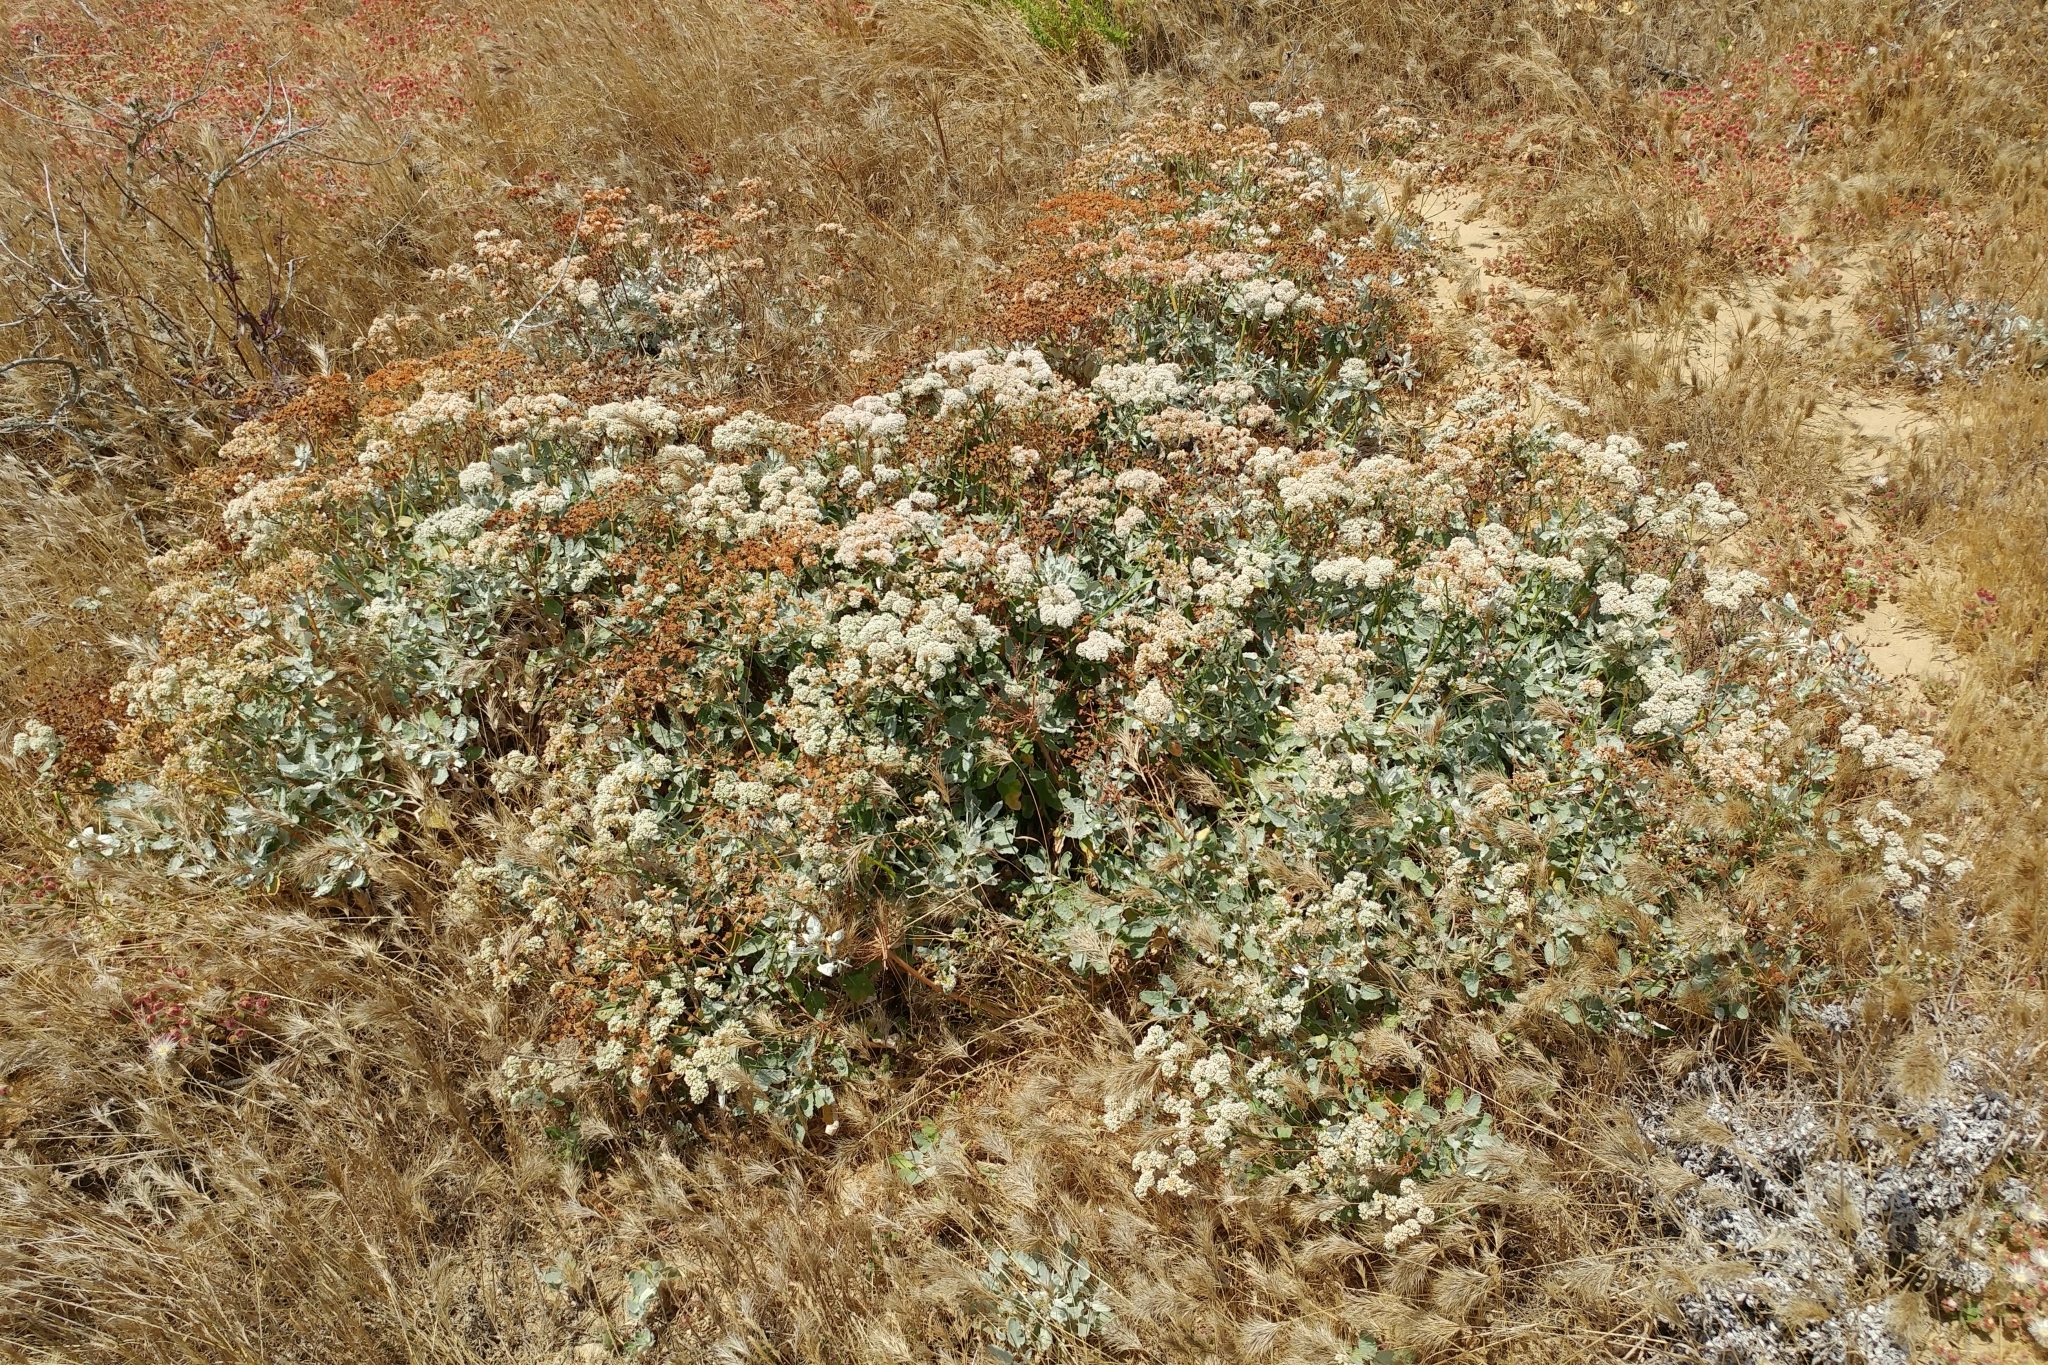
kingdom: Plantae
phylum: Tracheophyta
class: Magnoliopsida
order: Caryophyllales
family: Polygonaceae
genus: Eriogonum
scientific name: Eriogonum grande
